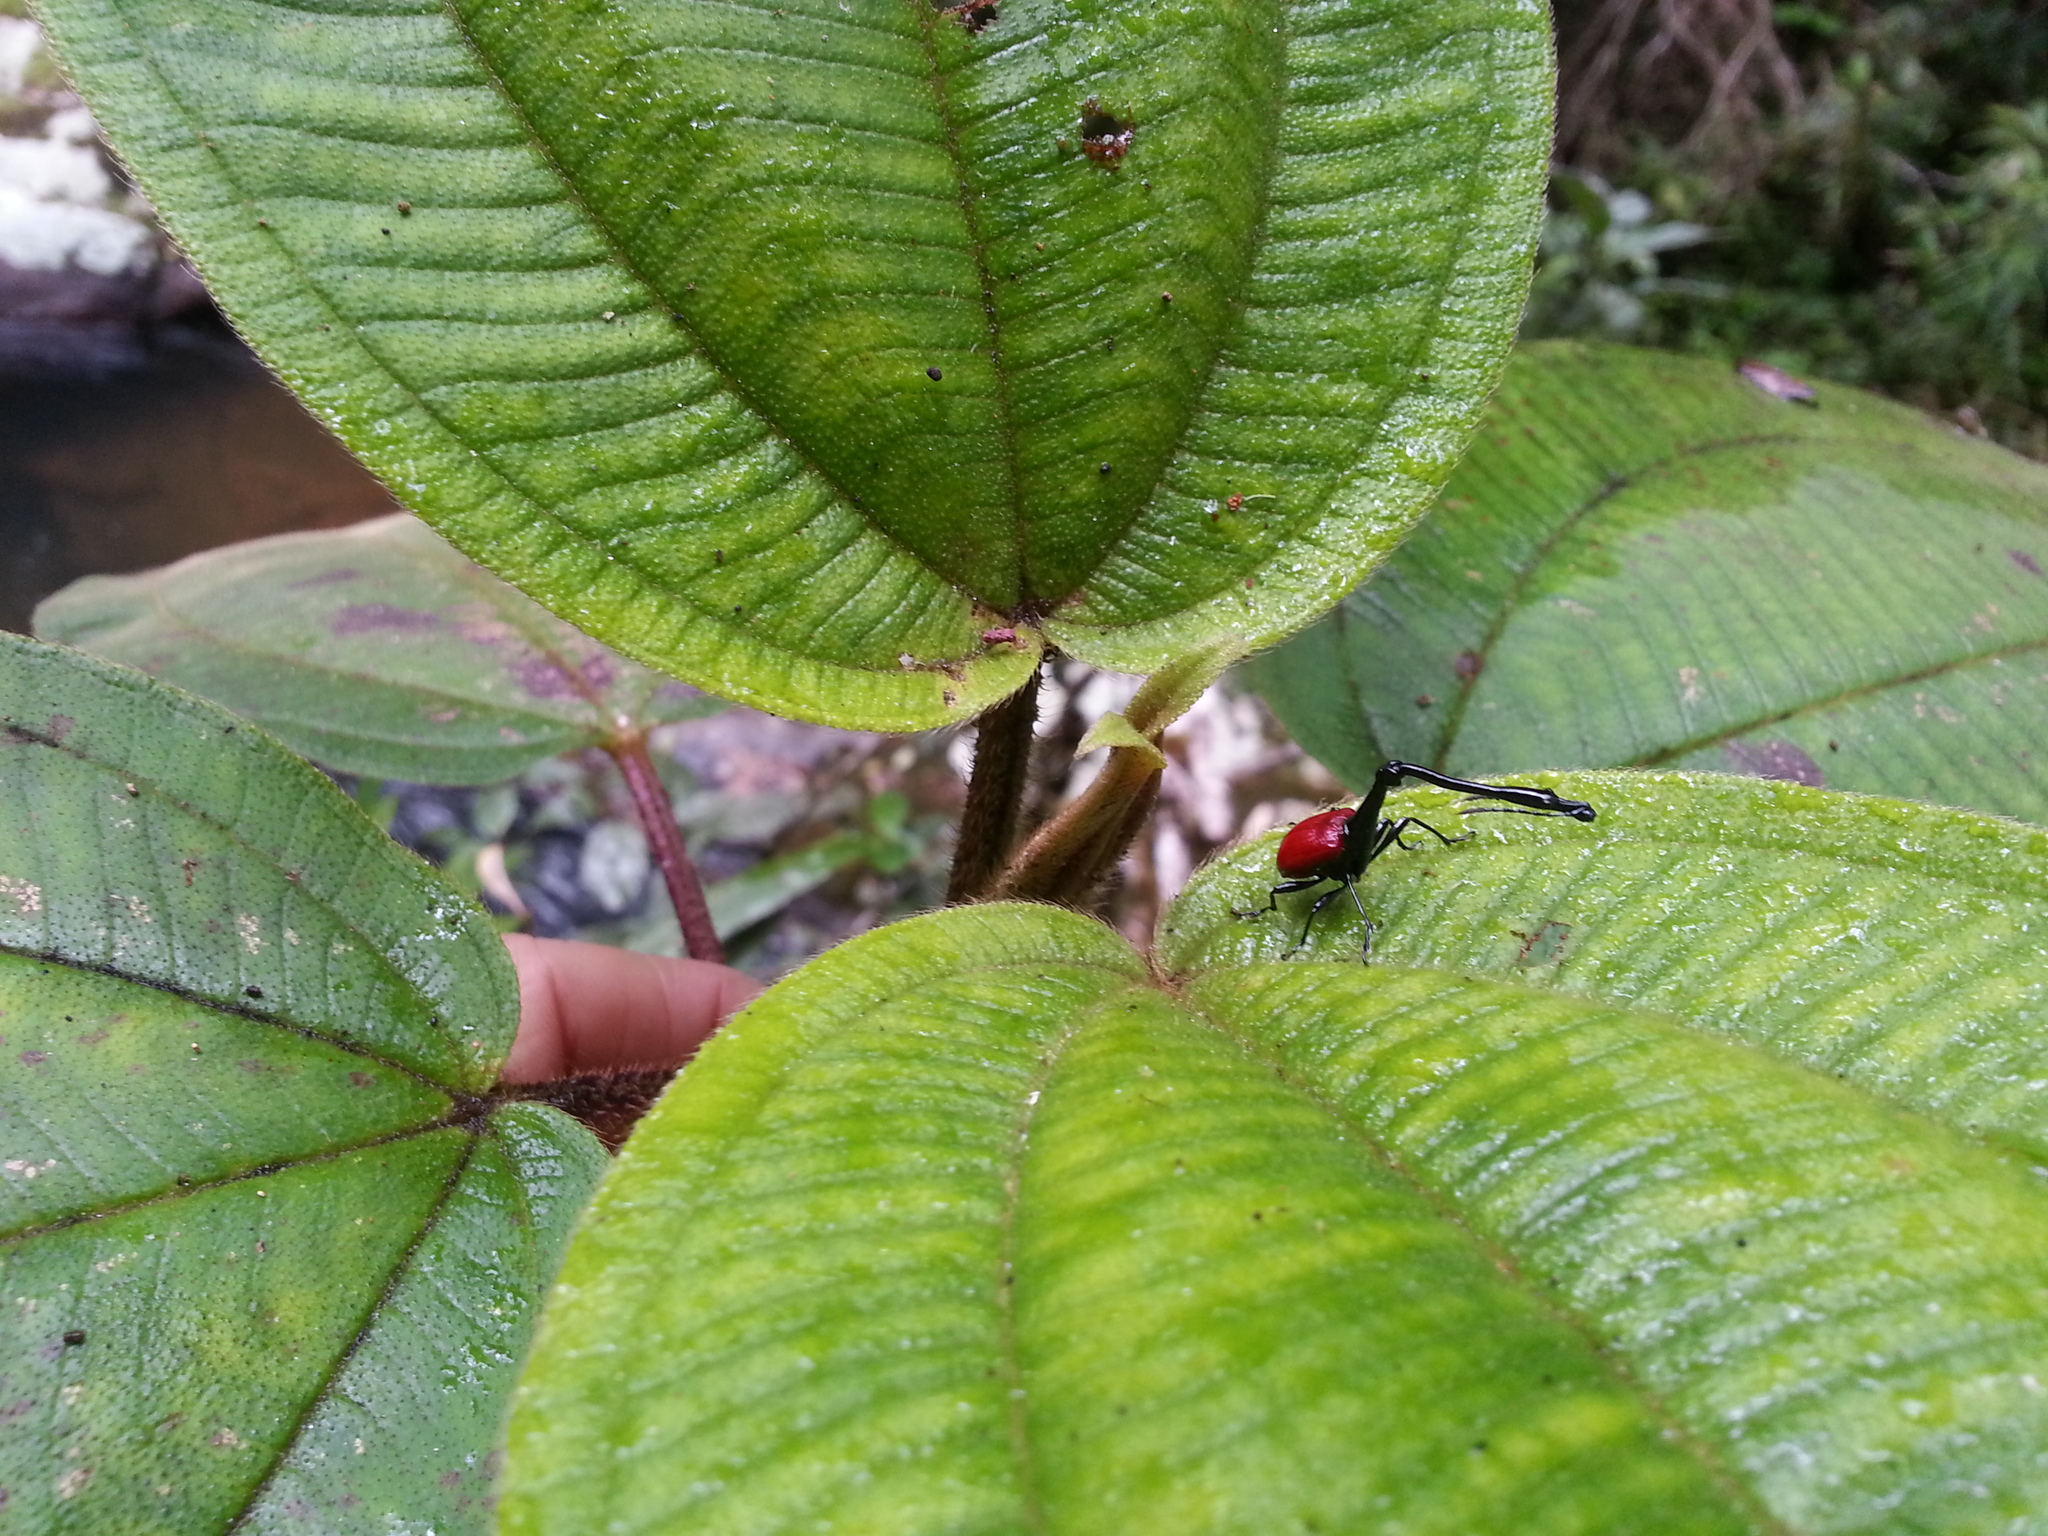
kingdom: Animalia
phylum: Arthropoda
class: Insecta
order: Coleoptera
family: Attelabidae
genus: Trachelophorus
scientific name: Trachelophorus giraffa
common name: Giraffe weevil
